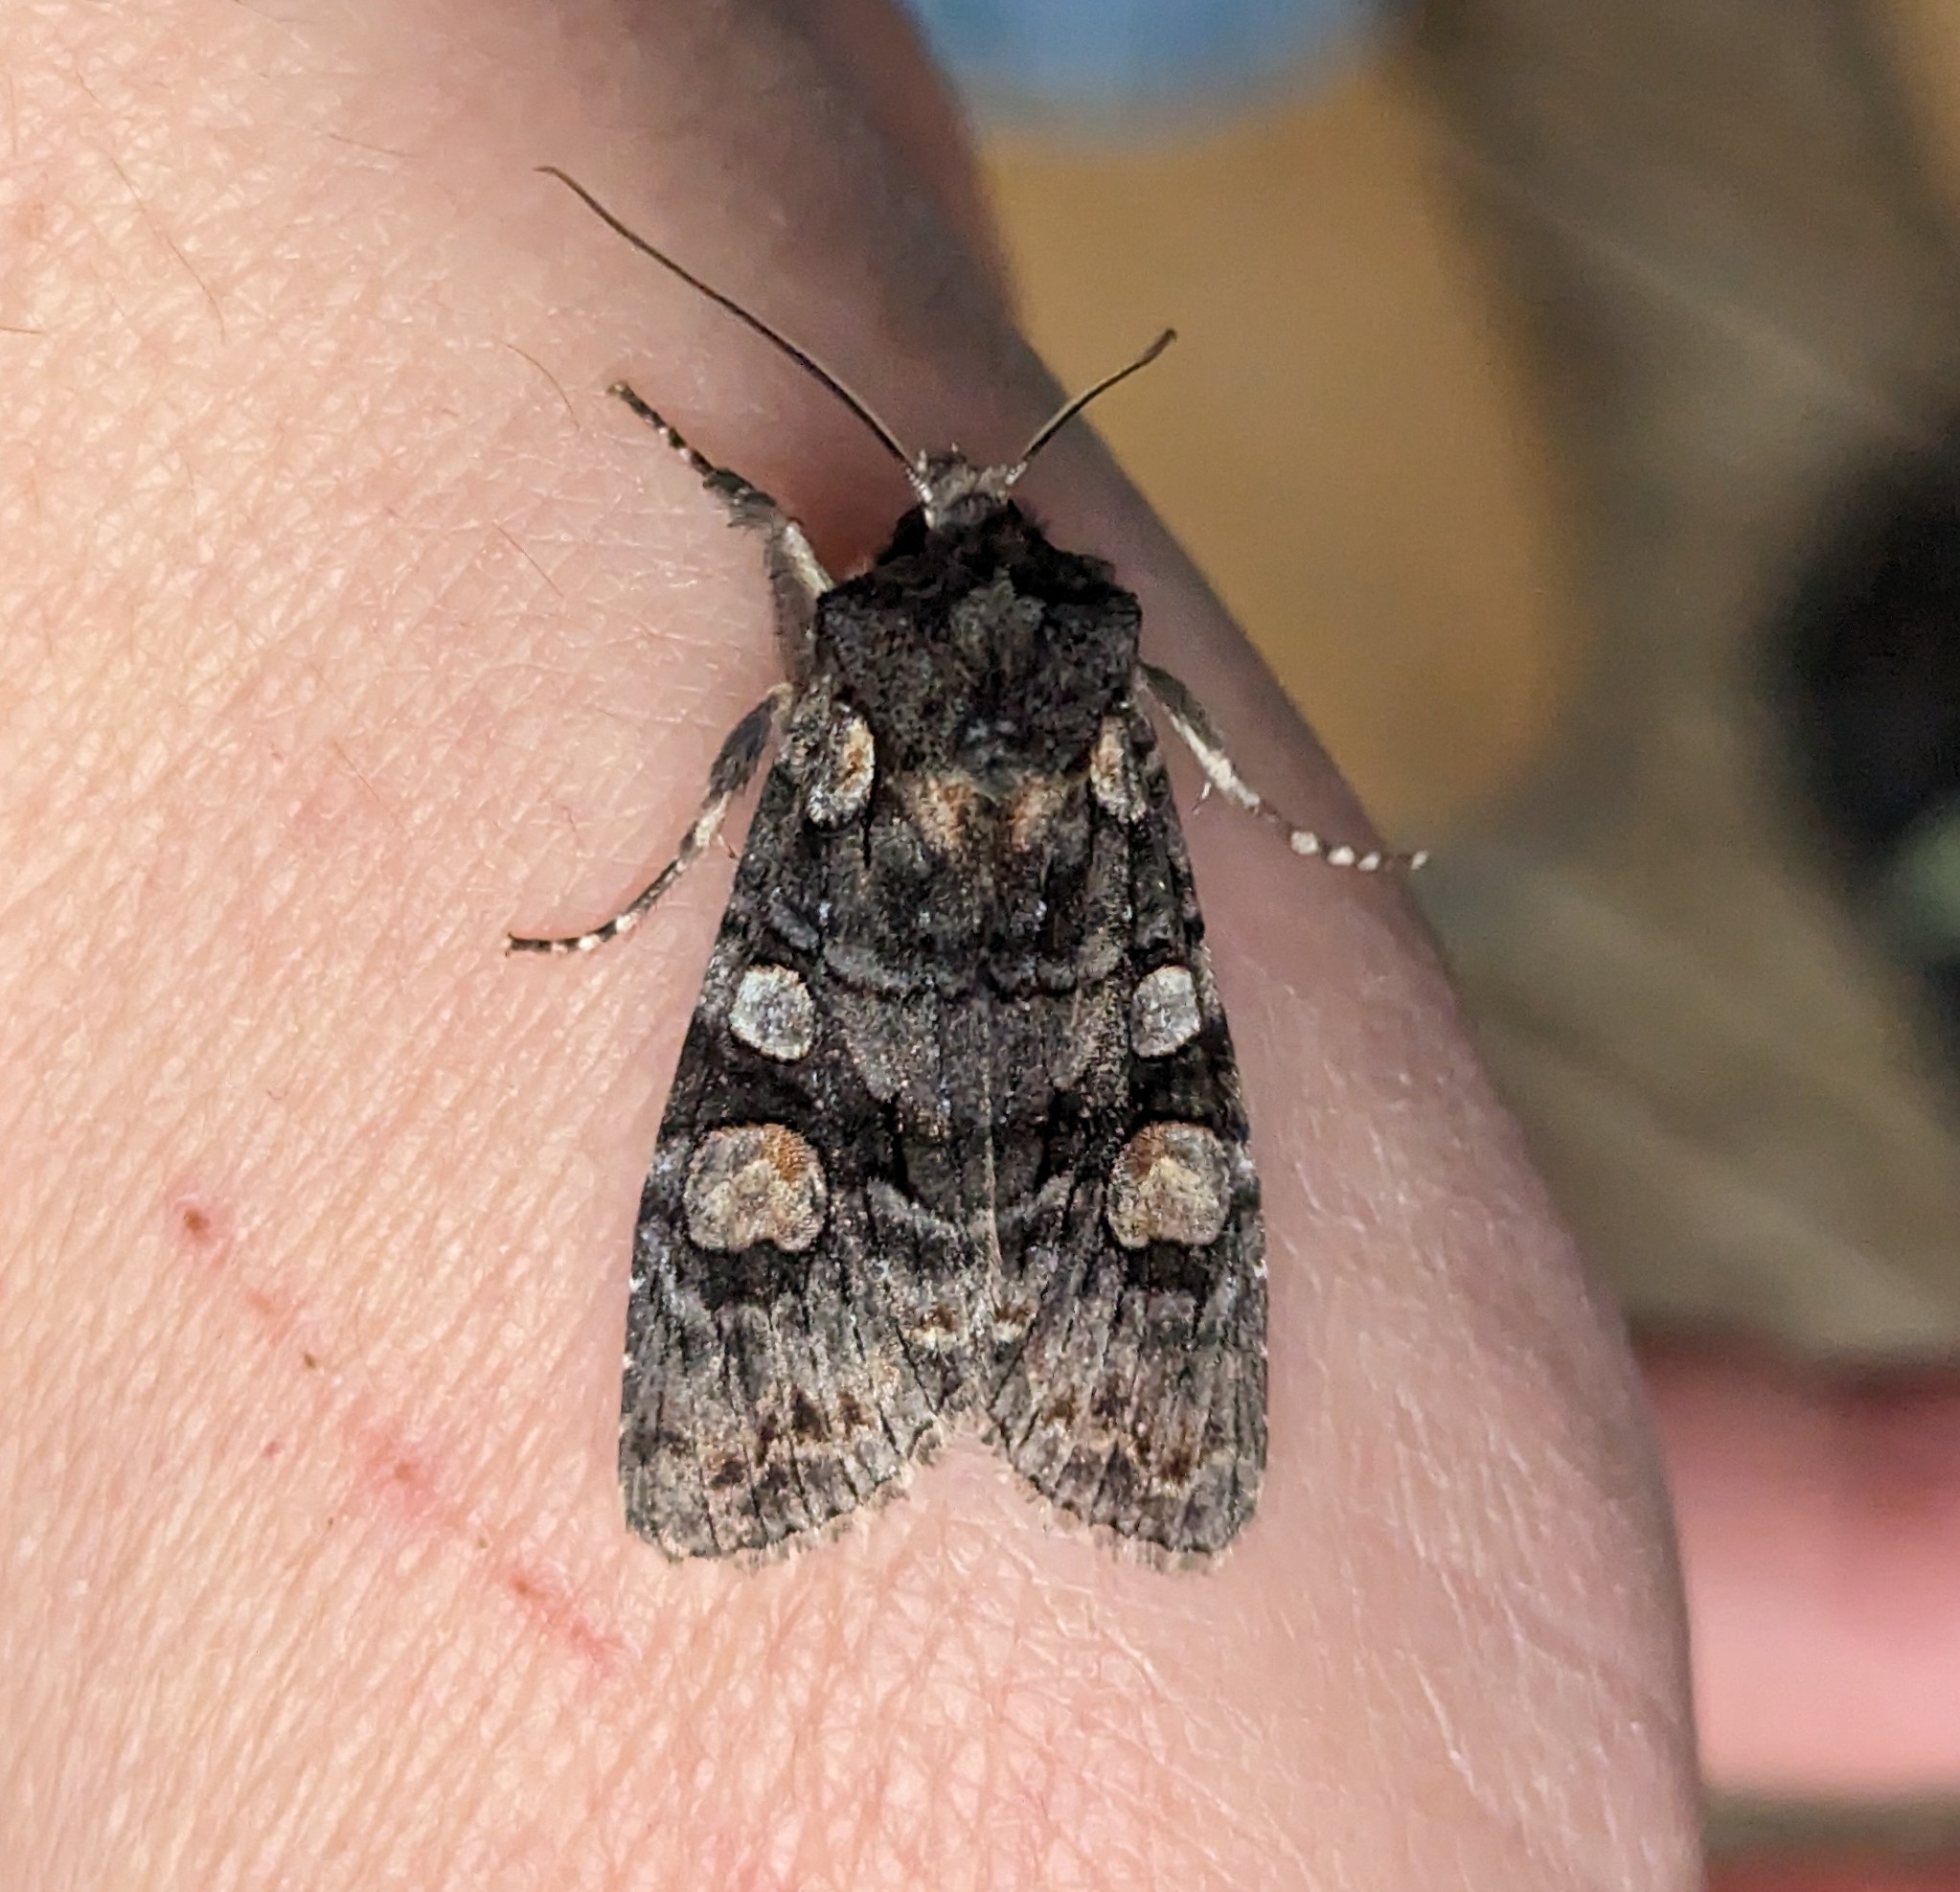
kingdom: Animalia
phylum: Arthropoda
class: Insecta
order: Lepidoptera
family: Noctuidae
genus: Lithophane
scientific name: Lithophane dilatocula
